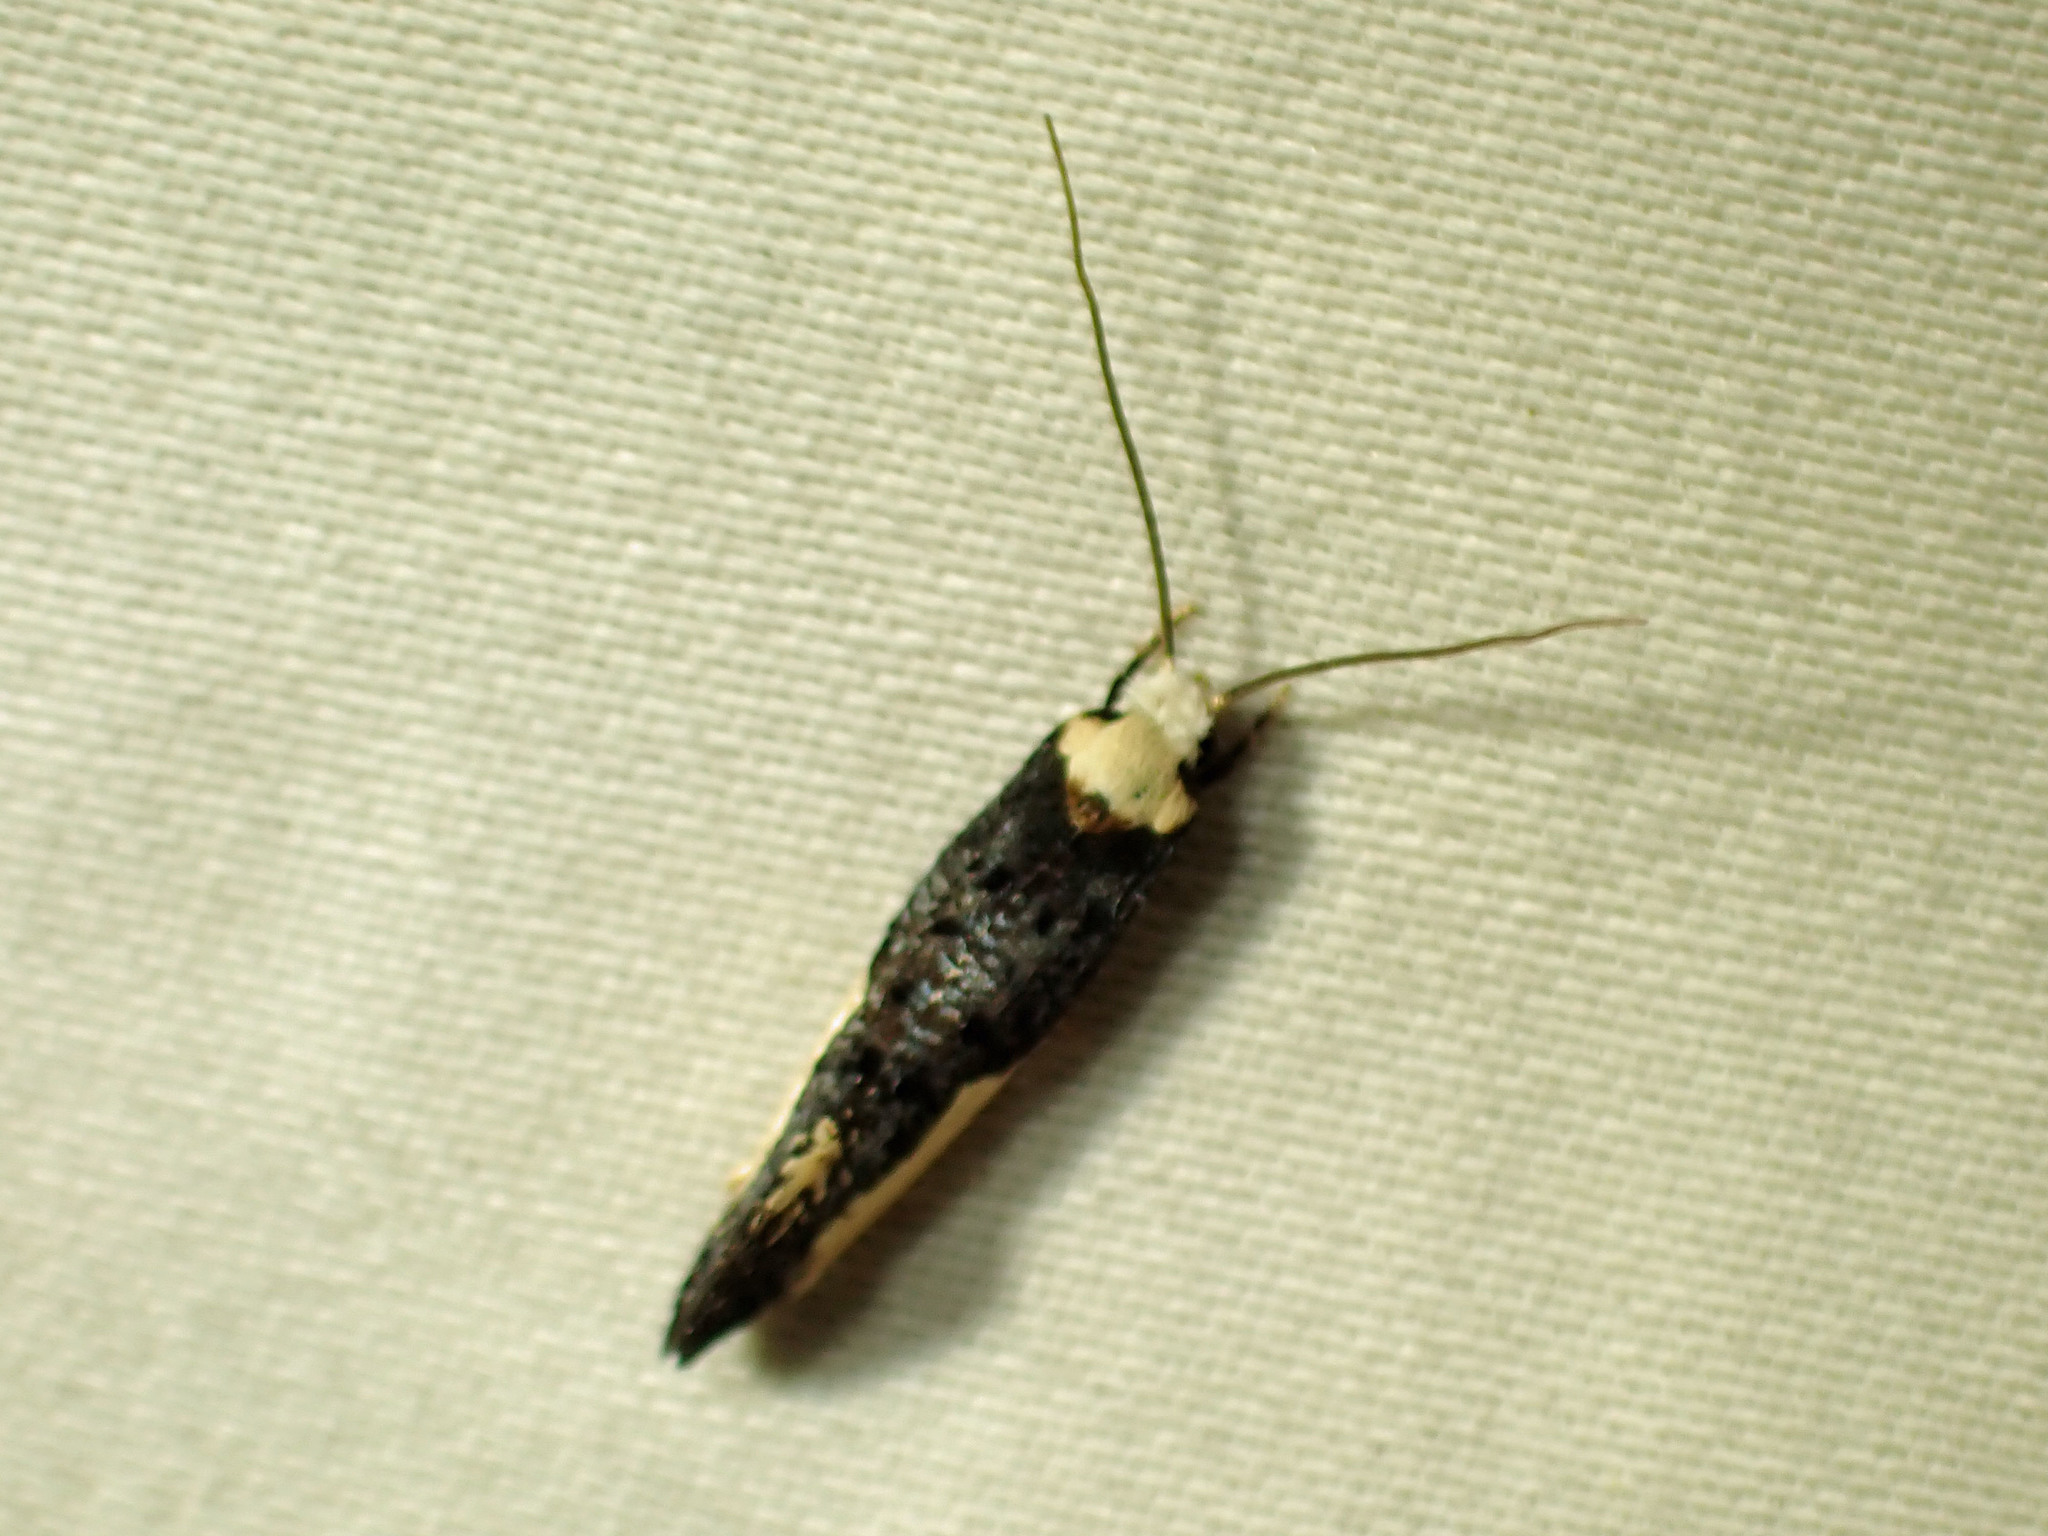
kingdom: Animalia
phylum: Arthropoda
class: Insecta
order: Lepidoptera
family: Tineidae
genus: Monopis
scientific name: Monopis monachella
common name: Moth
